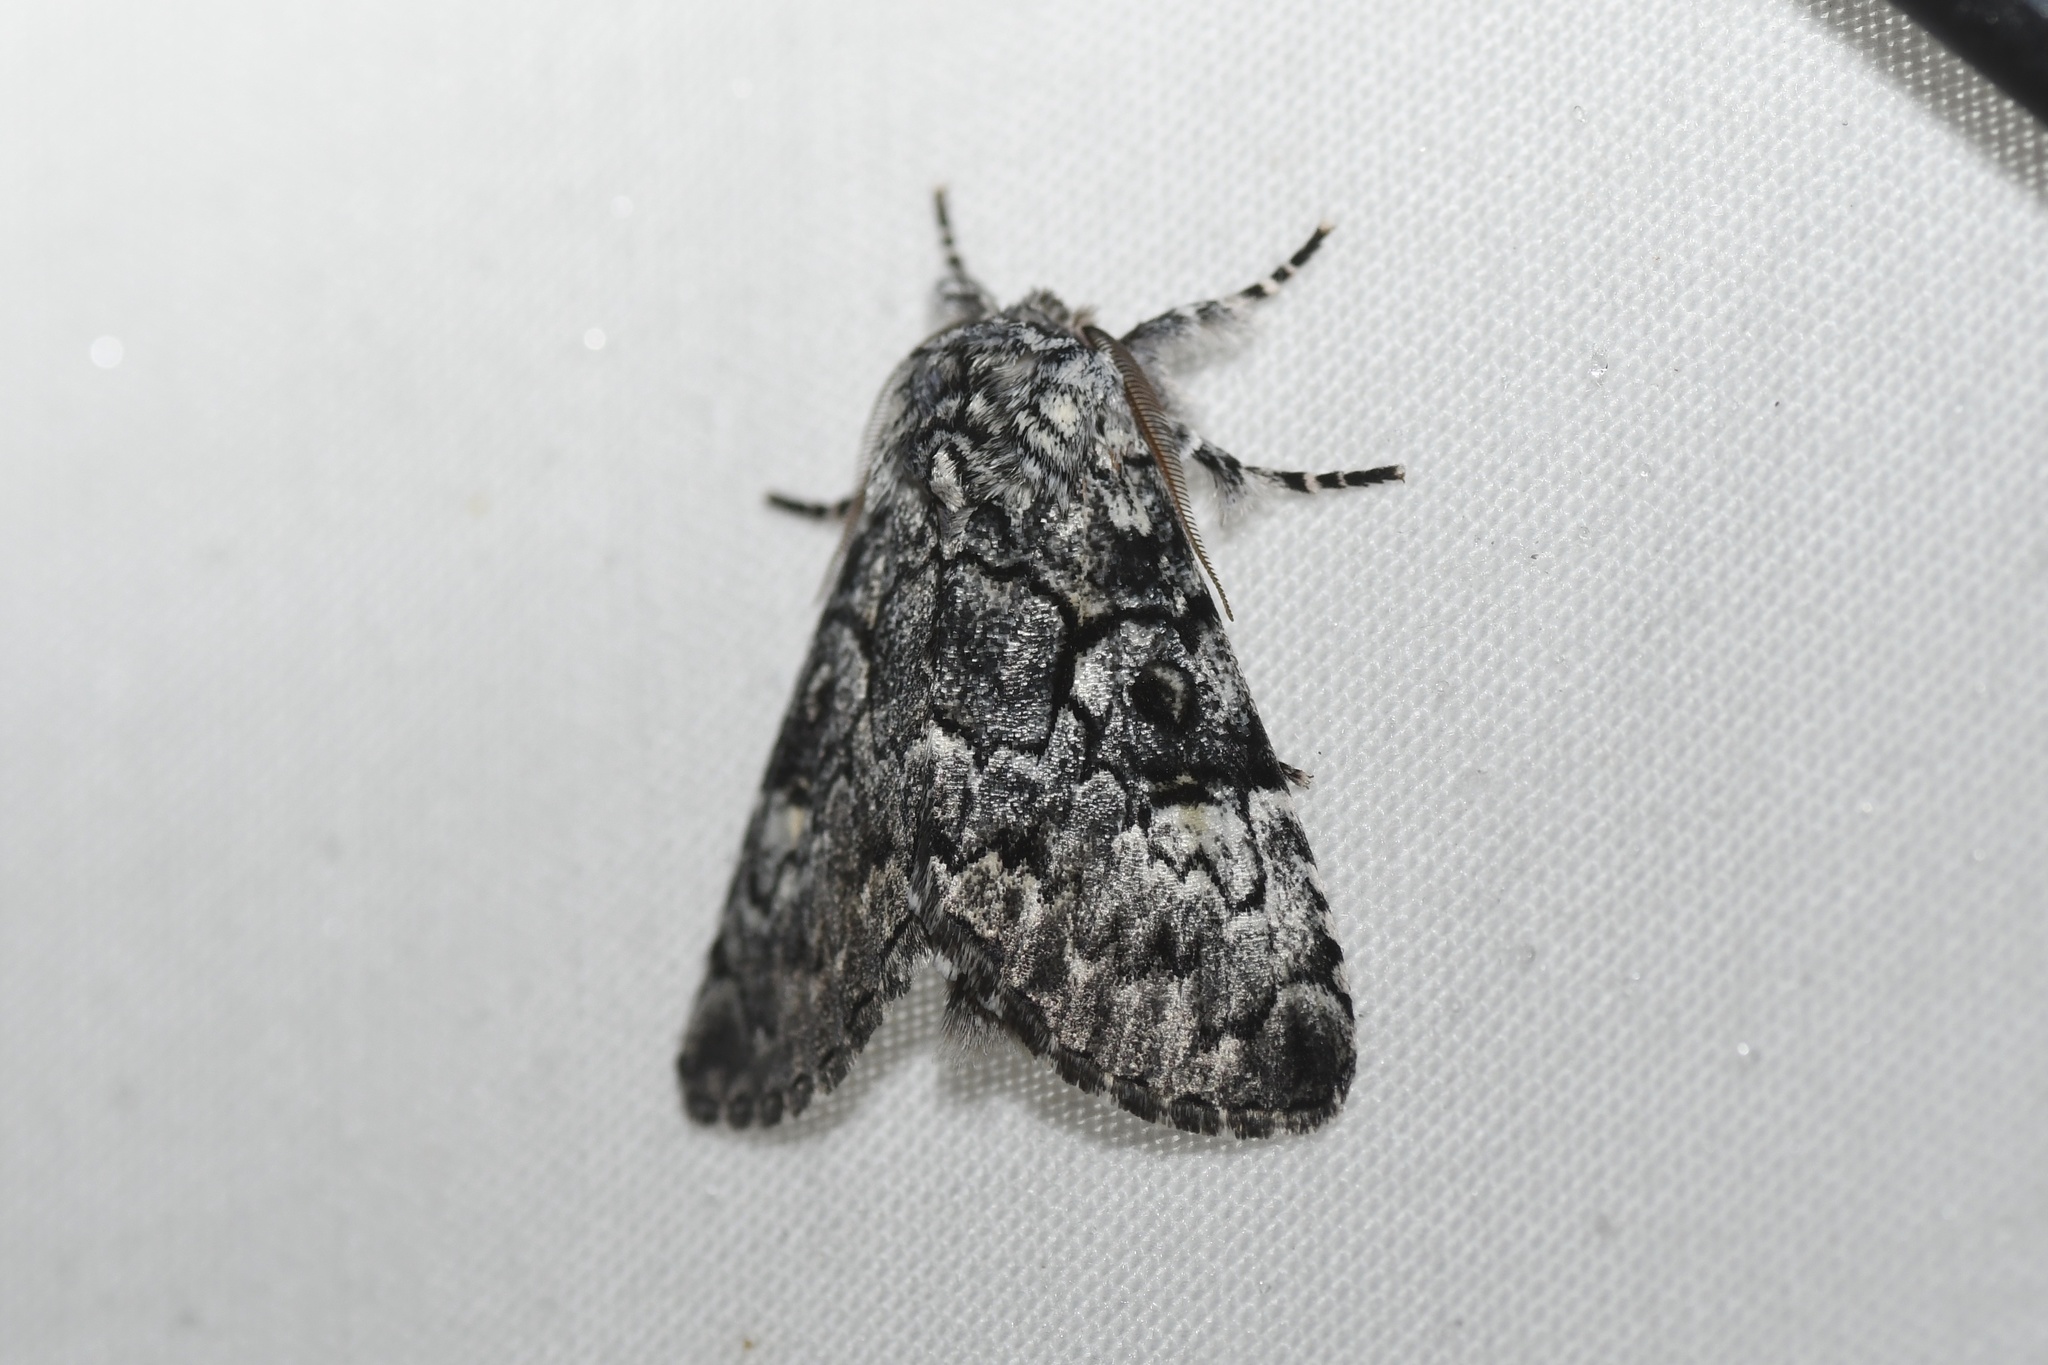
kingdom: Animalia
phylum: Arthropoda
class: Insecta
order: Lepidoptera
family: Noctuidae
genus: Charadra
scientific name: Charadra deridens
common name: Marbled tuffet
